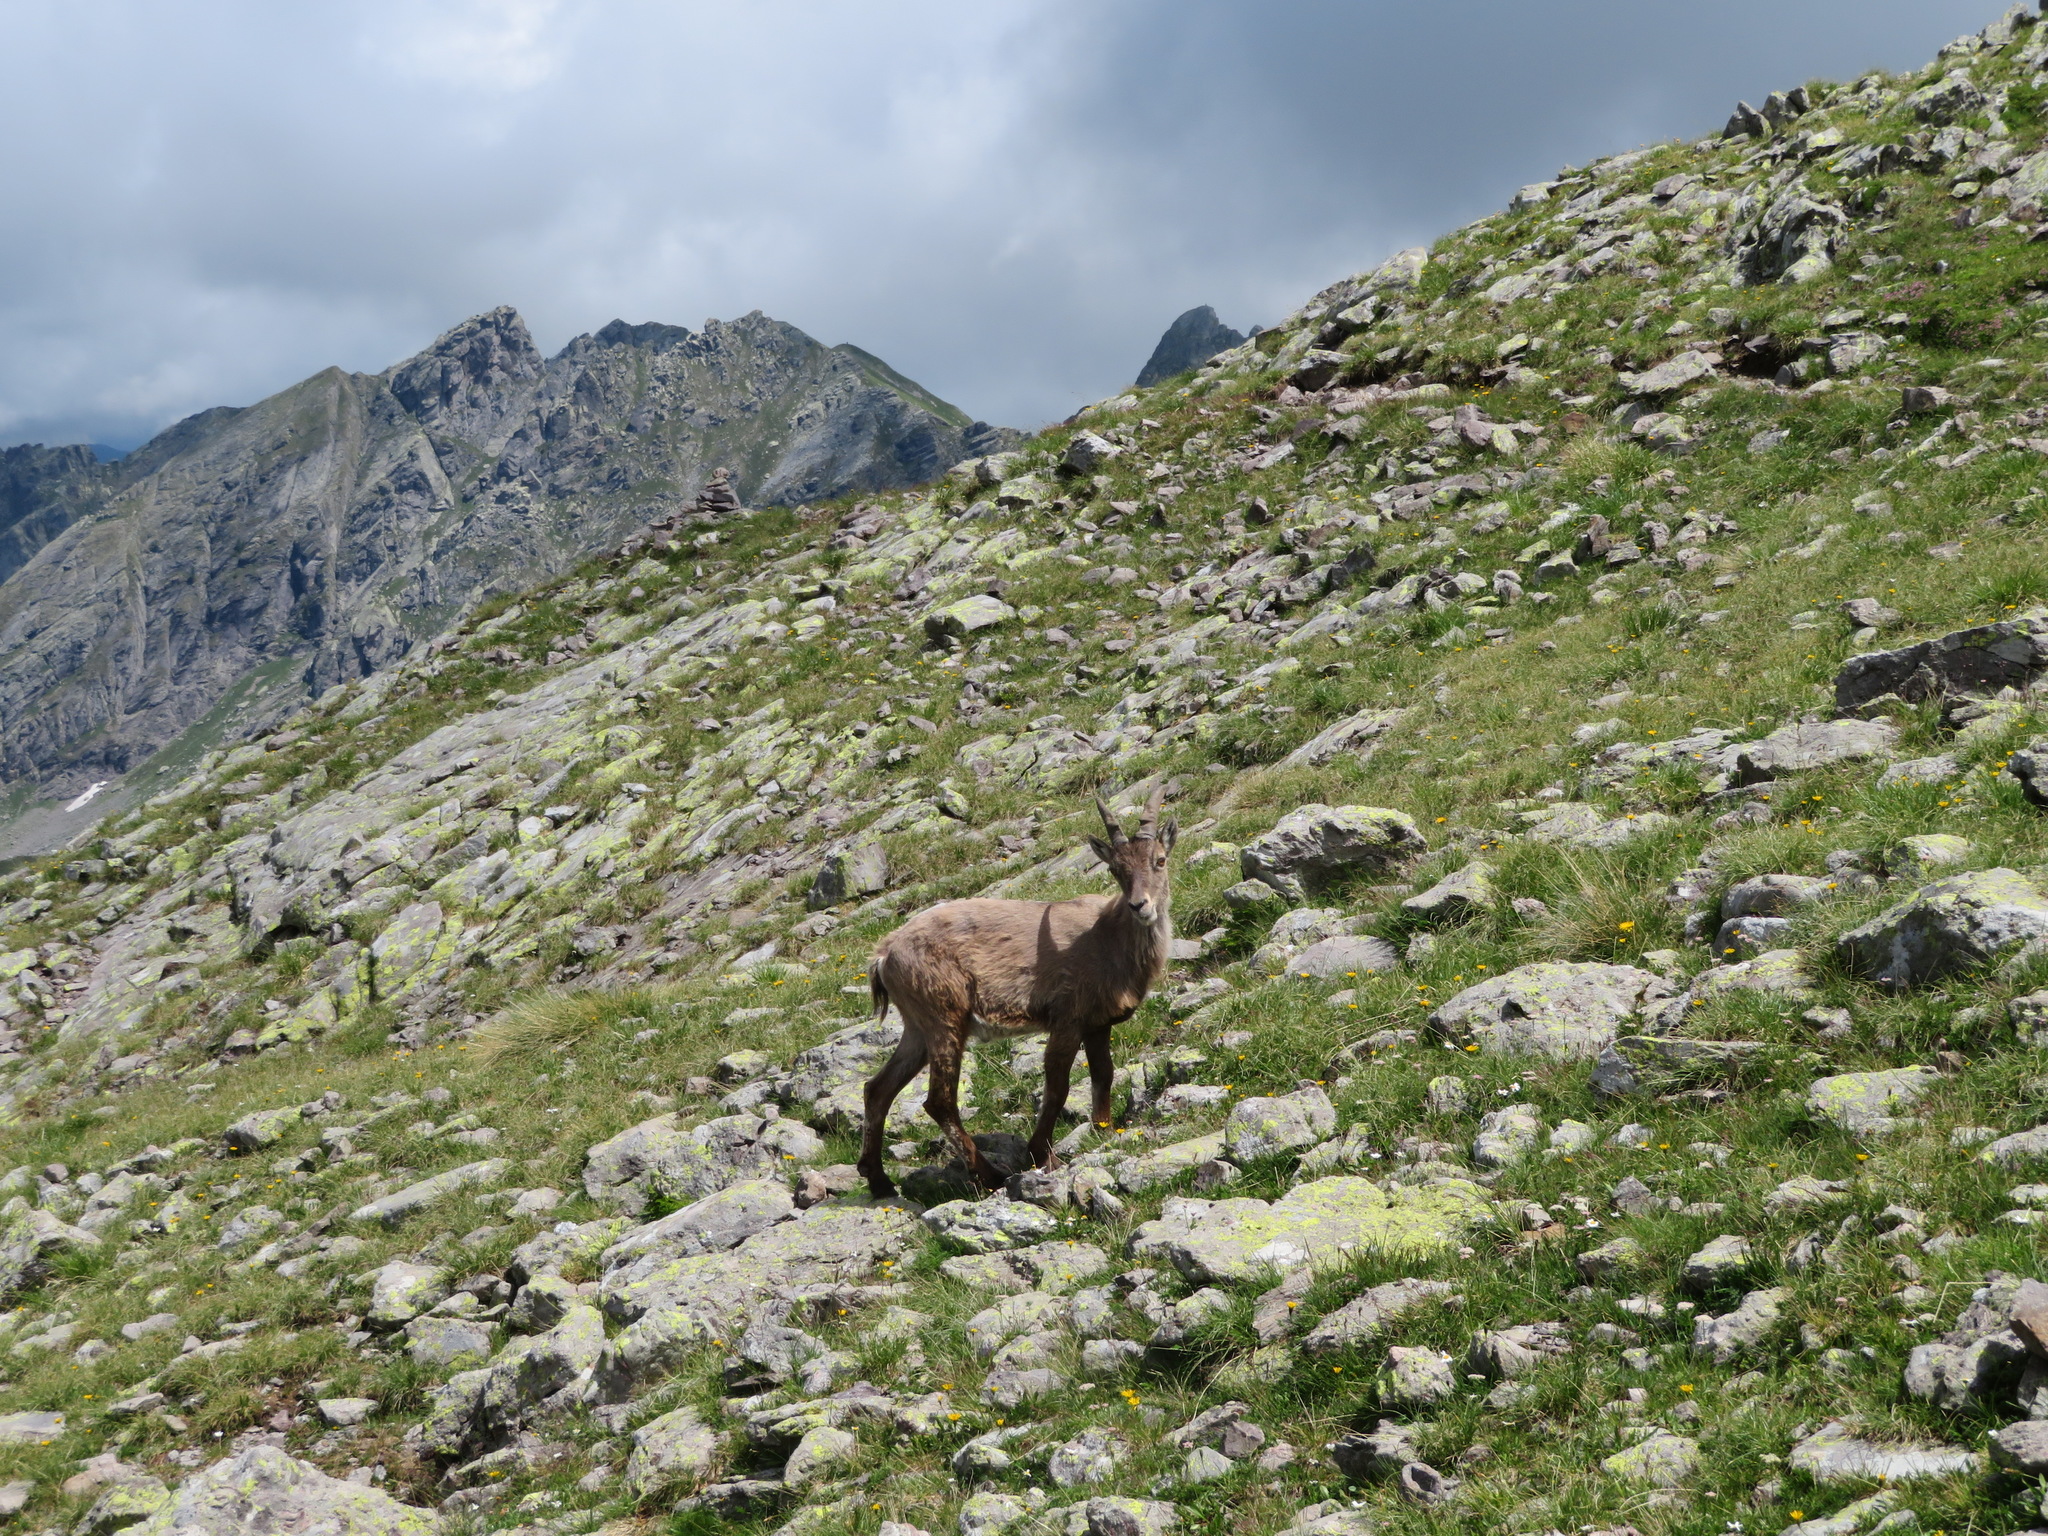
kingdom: Animalia
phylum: Chordata
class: Mammalia
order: Artiodactyla
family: Bovidae
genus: Capra
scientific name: Capra ibex
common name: Alpine ibex
